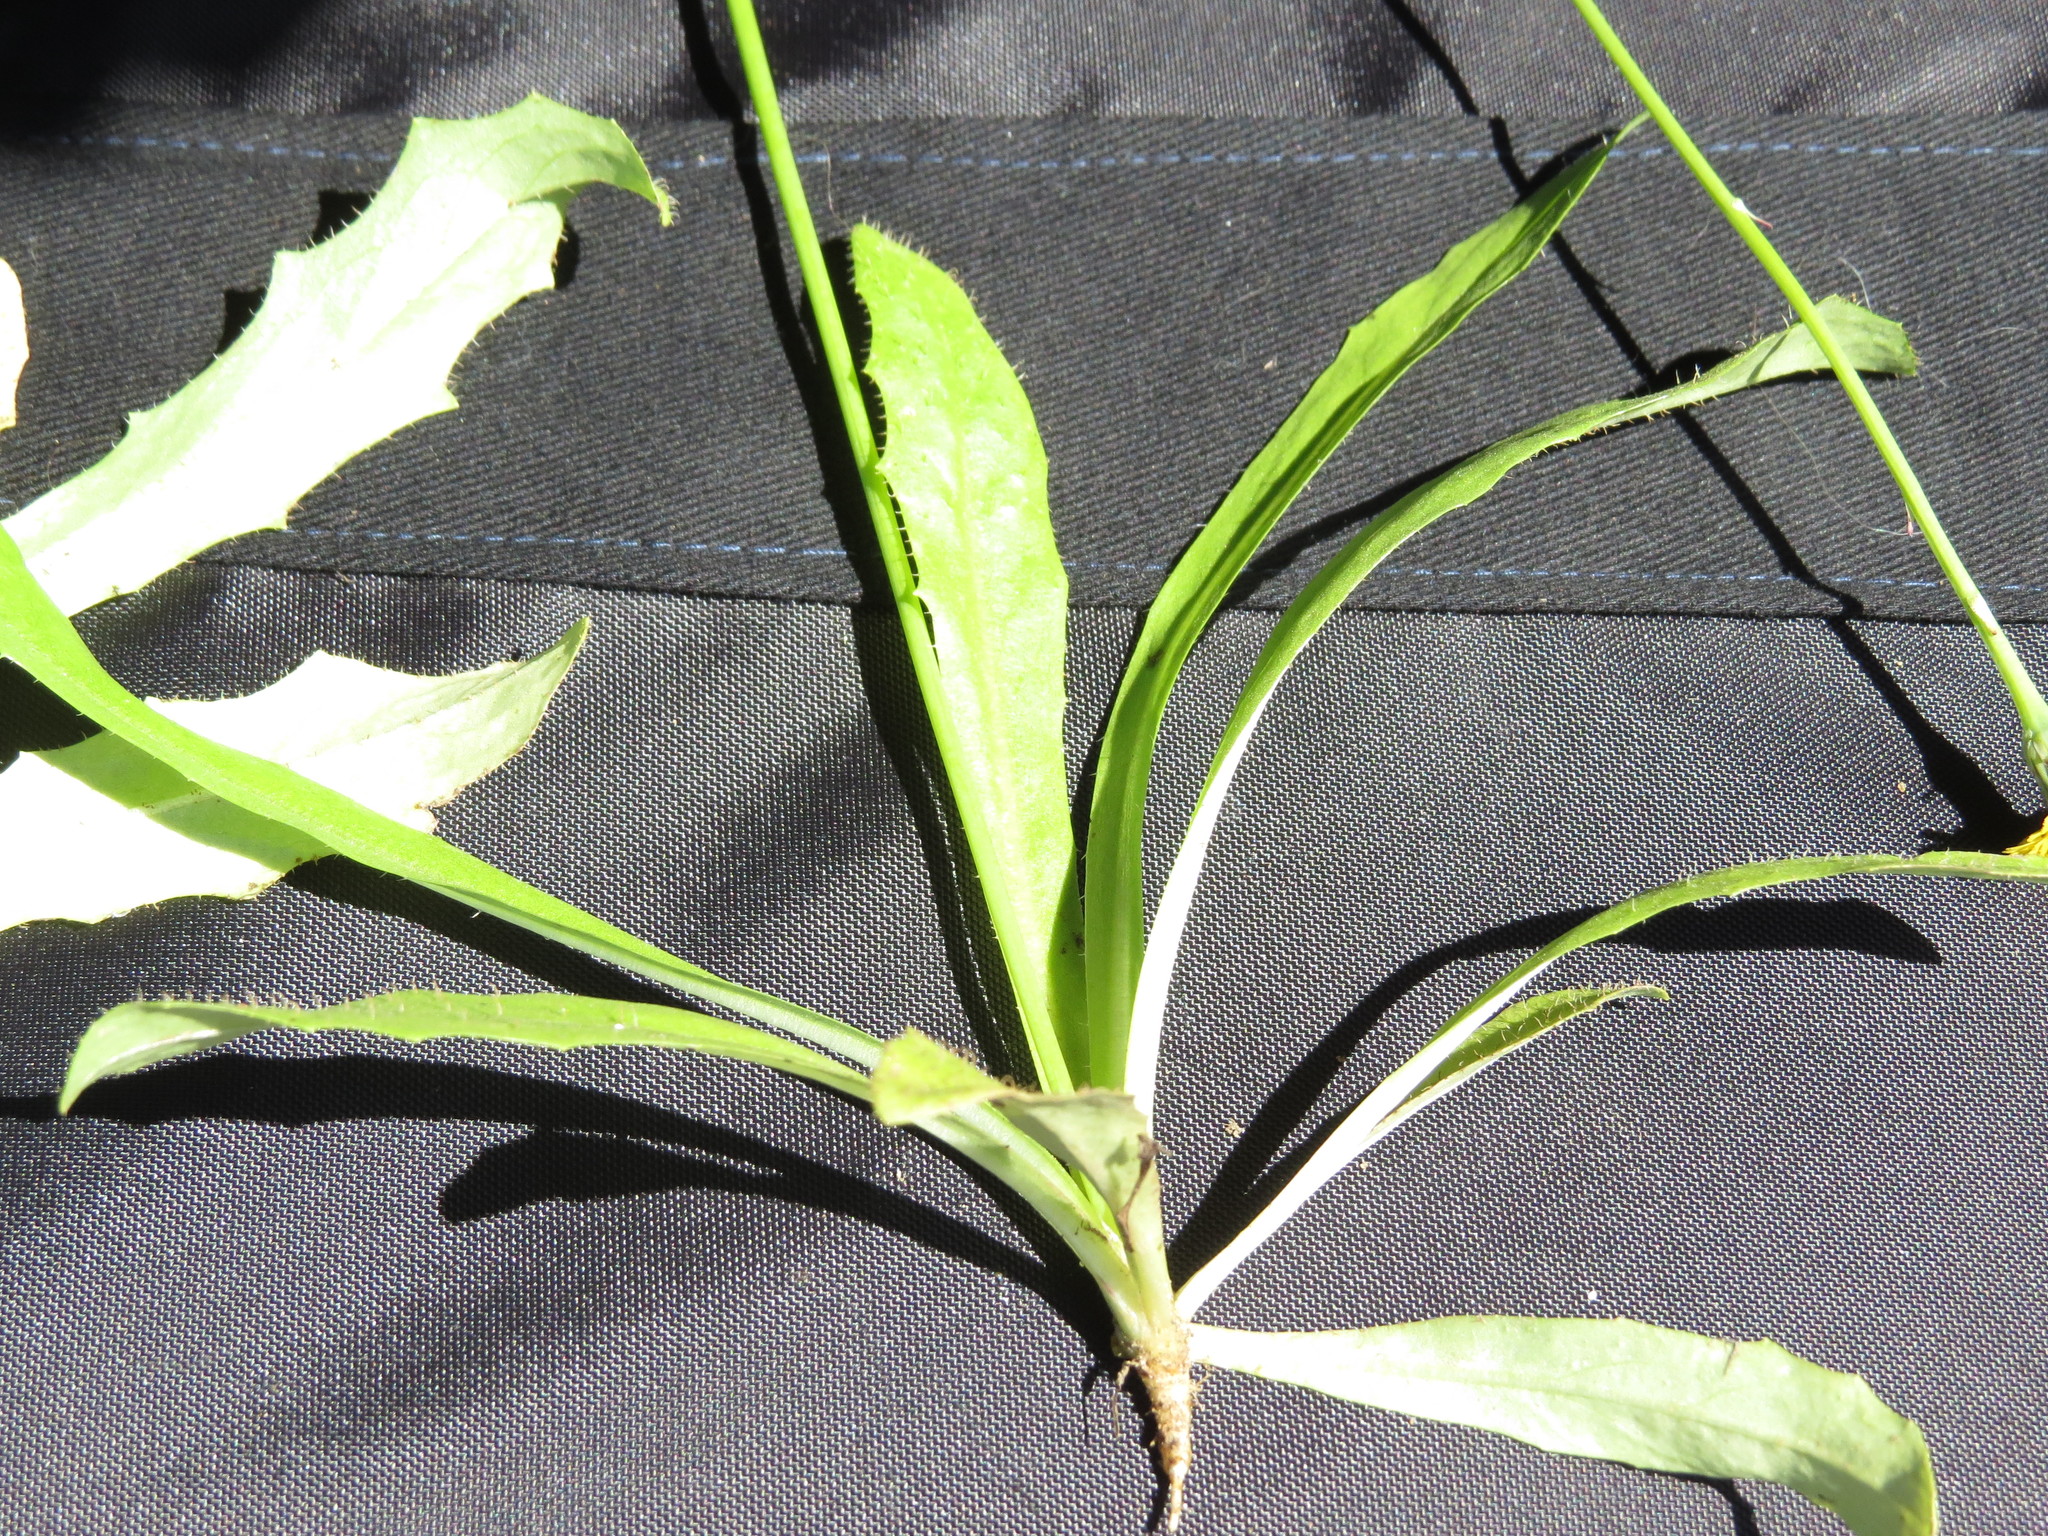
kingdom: Plantae
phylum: Tracheophyta
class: Magnoliopsida
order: Asterales
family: Asteraceae
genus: Hypochaeris
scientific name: Hypochaeris glabra
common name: Smooth catsear
